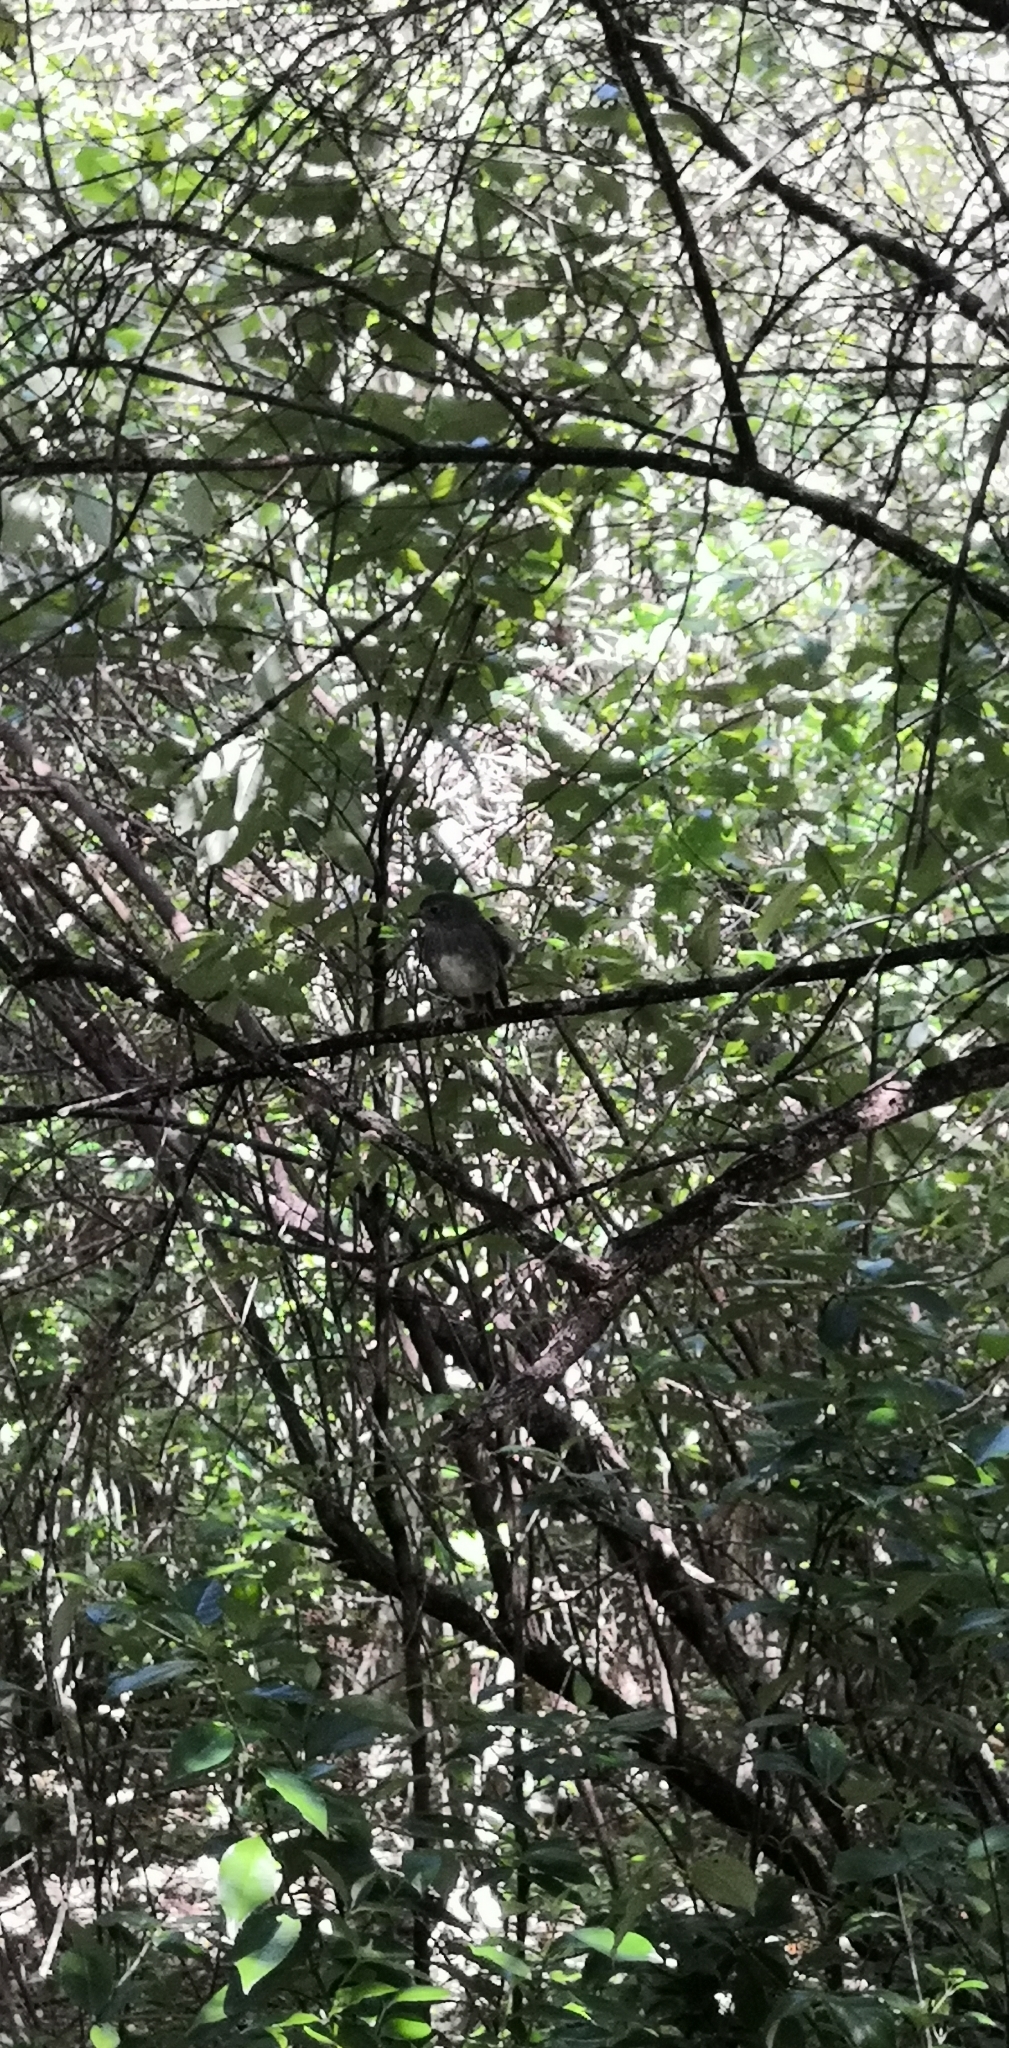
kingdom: Animalia
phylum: Chordata
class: Aves
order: Passeriformes
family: Petroicidae
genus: Petroica
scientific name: Petroica australis
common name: New zealand robin
